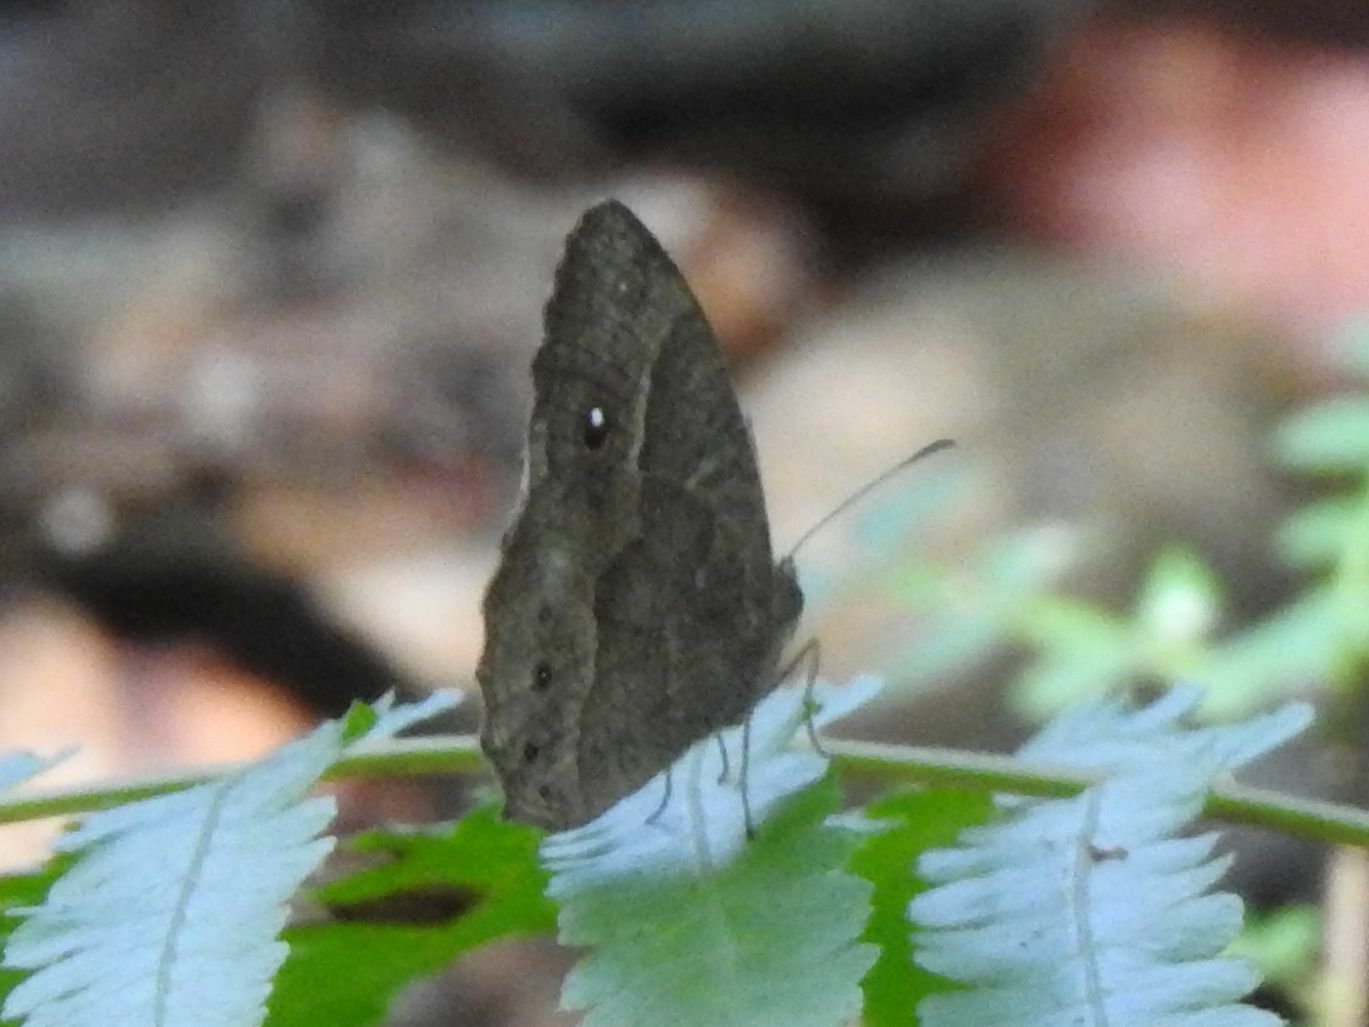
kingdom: Animalia
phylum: Arthropoda
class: Insecta
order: Lepidoptera
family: Nymphalidae
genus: Mycalesis
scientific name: Mycalesis anynana
